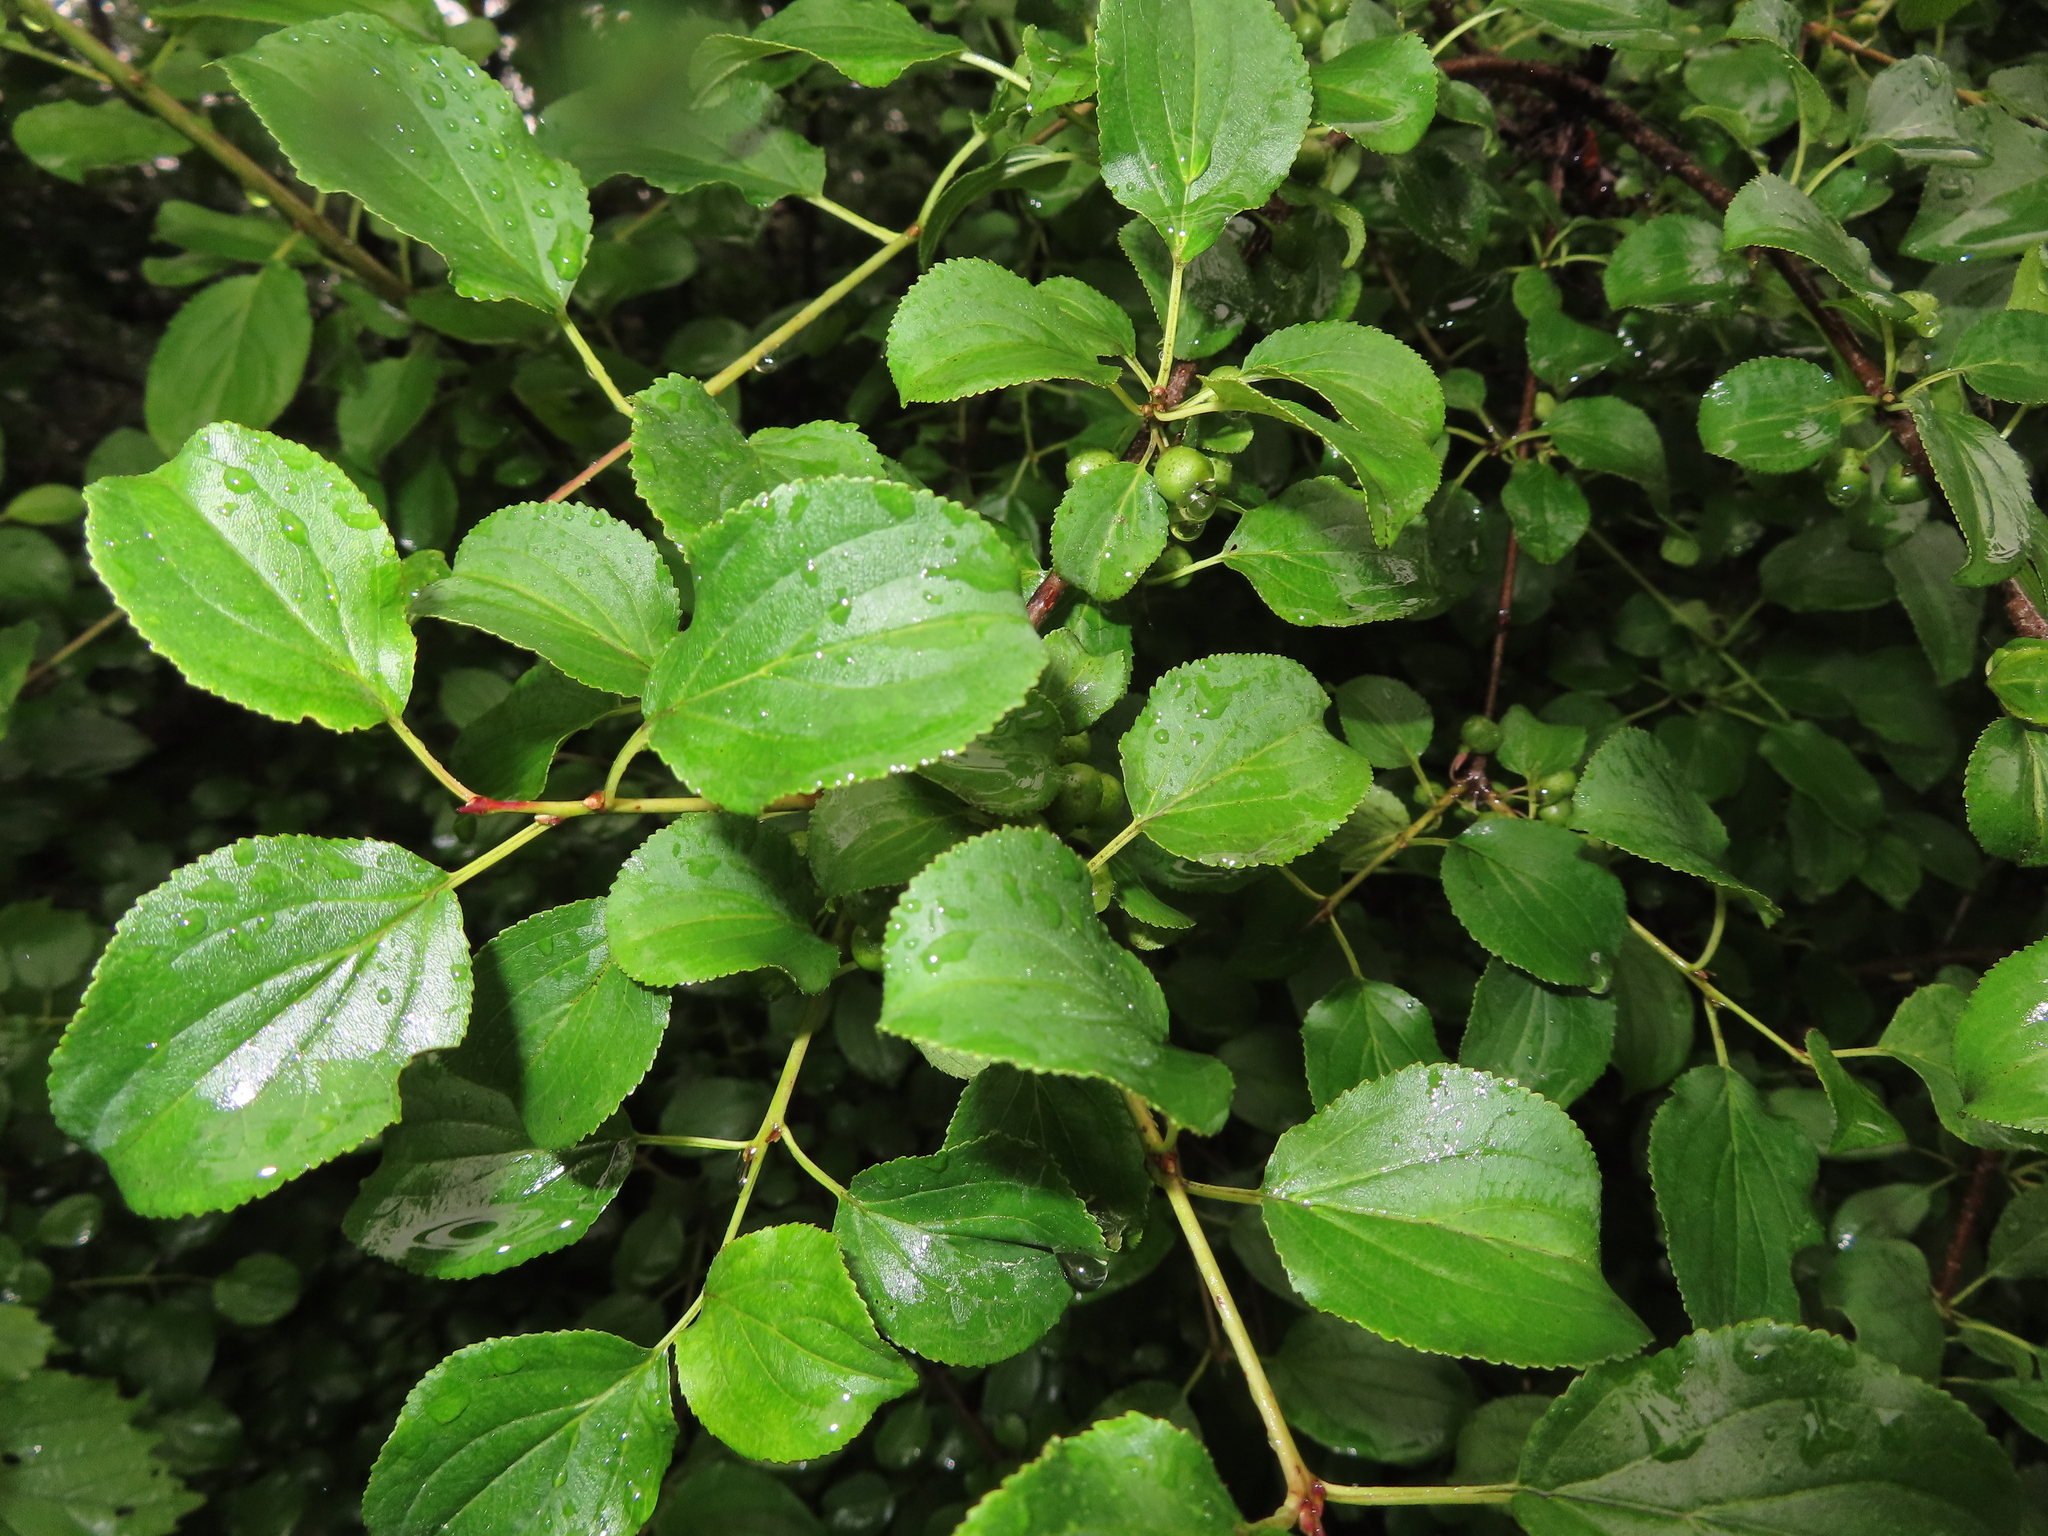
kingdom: Plantae
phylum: Tracheophyta
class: Magnoliopsida
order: Rosales
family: Rhamnaceae
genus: Rhamnus
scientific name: Rhamnus cathartica
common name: Common buckthorn
